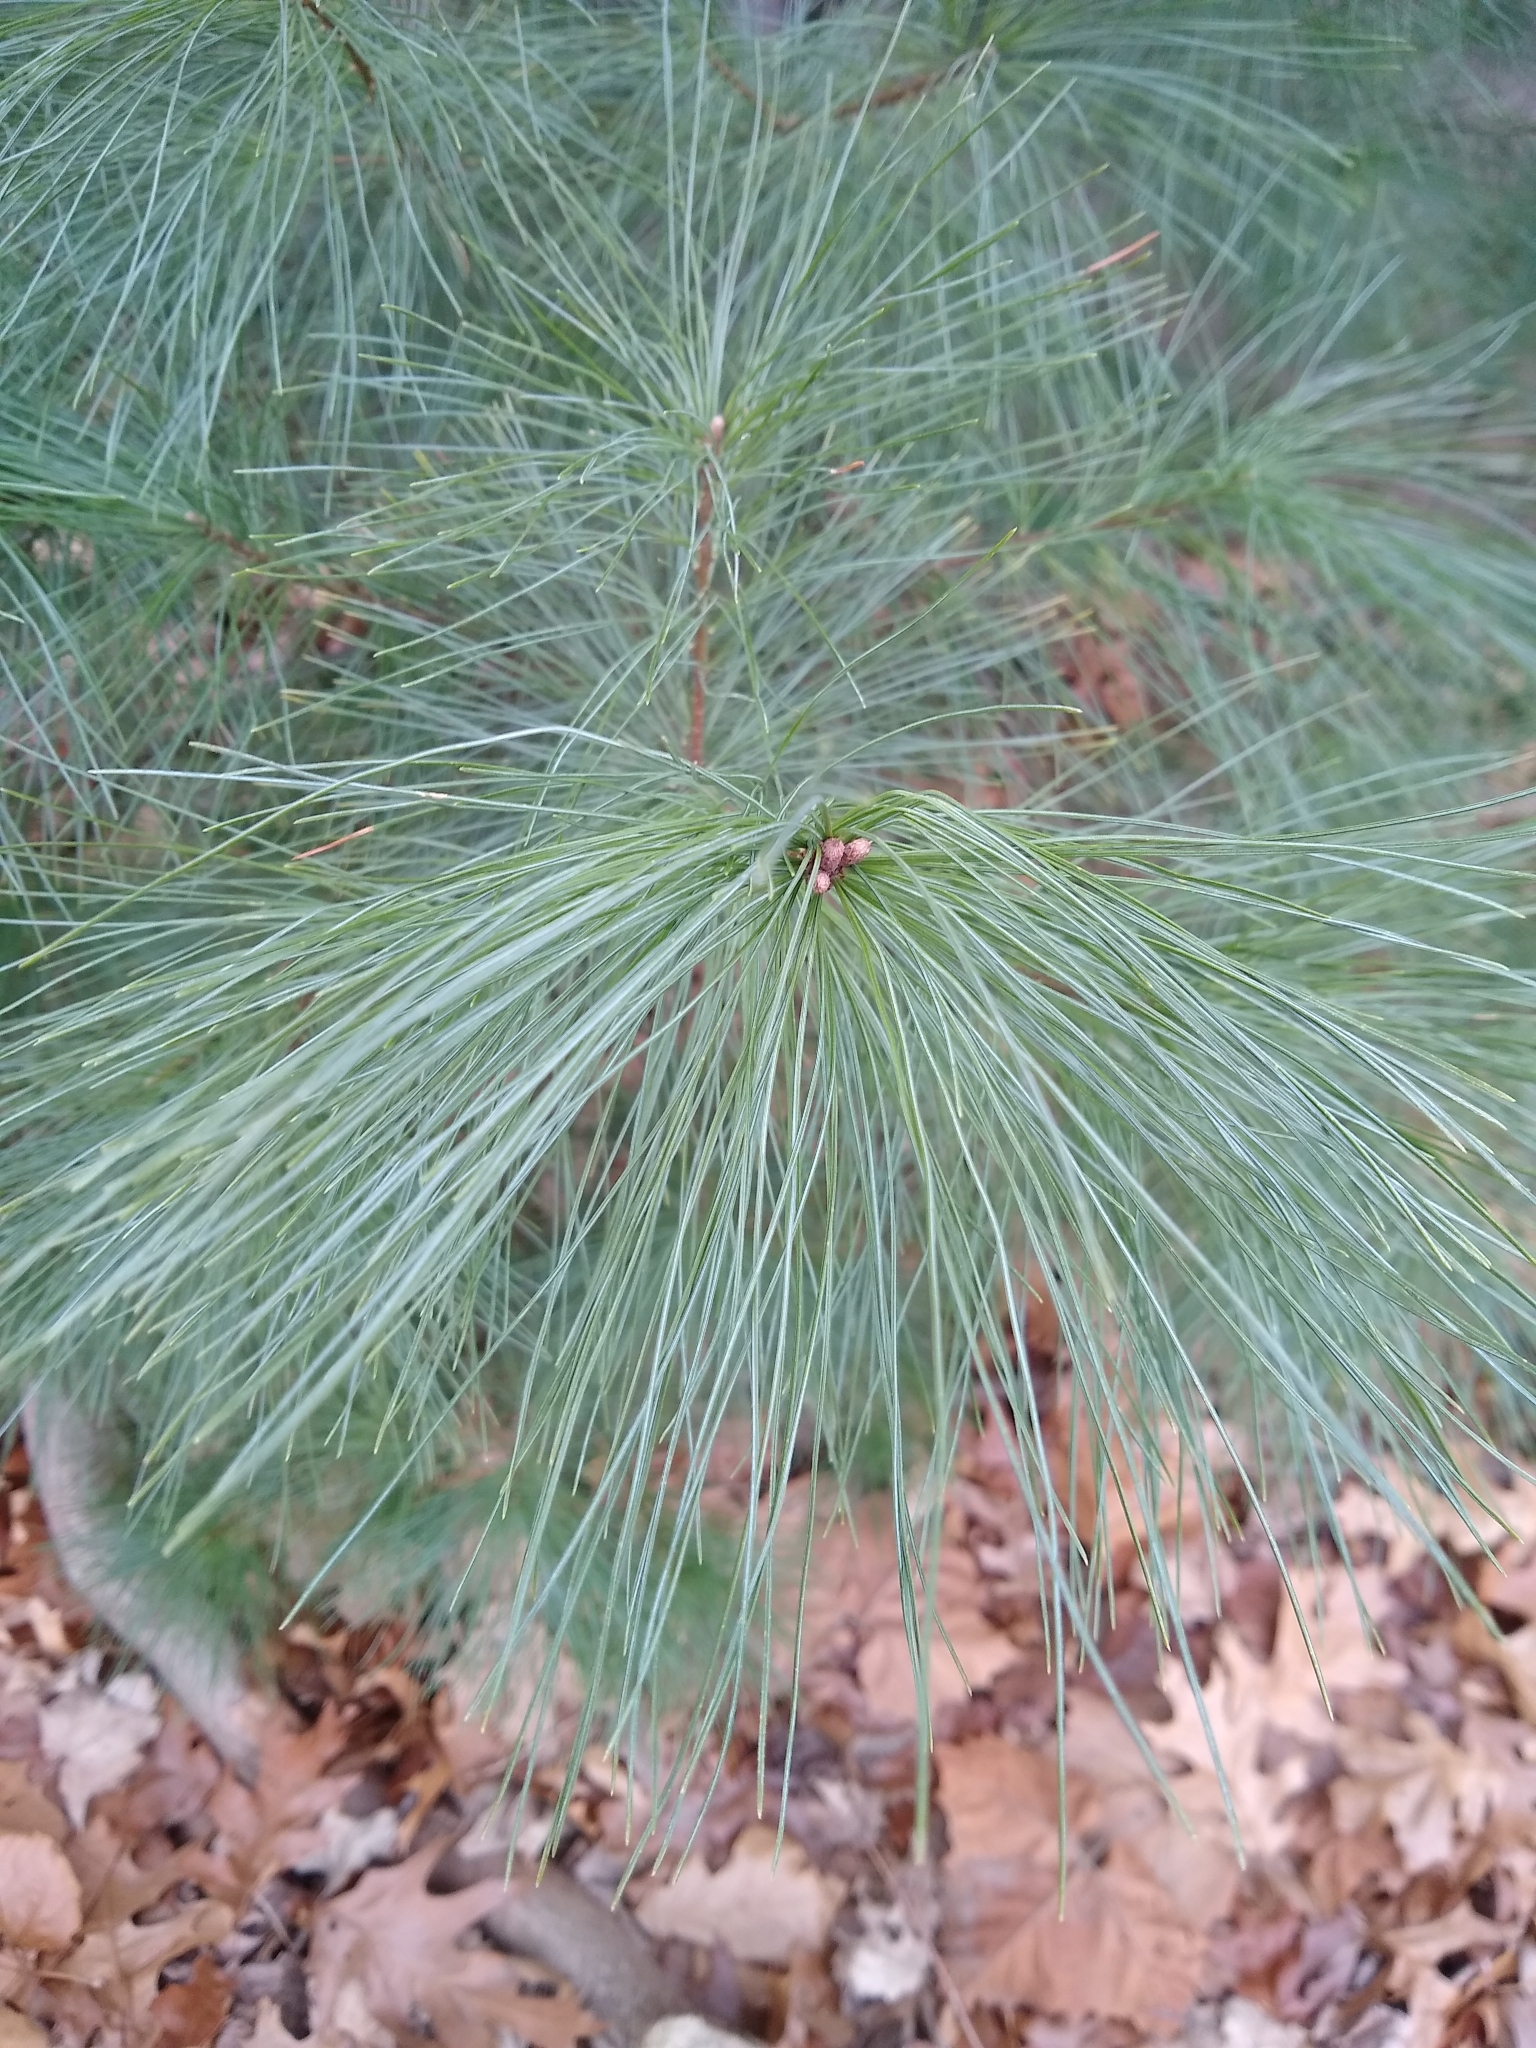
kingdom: Plantae
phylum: Tracheophyta
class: Pinopsida
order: Pinales
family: Pinaceae
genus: Pinus
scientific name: Pinus strobus
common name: Weymouth pine
